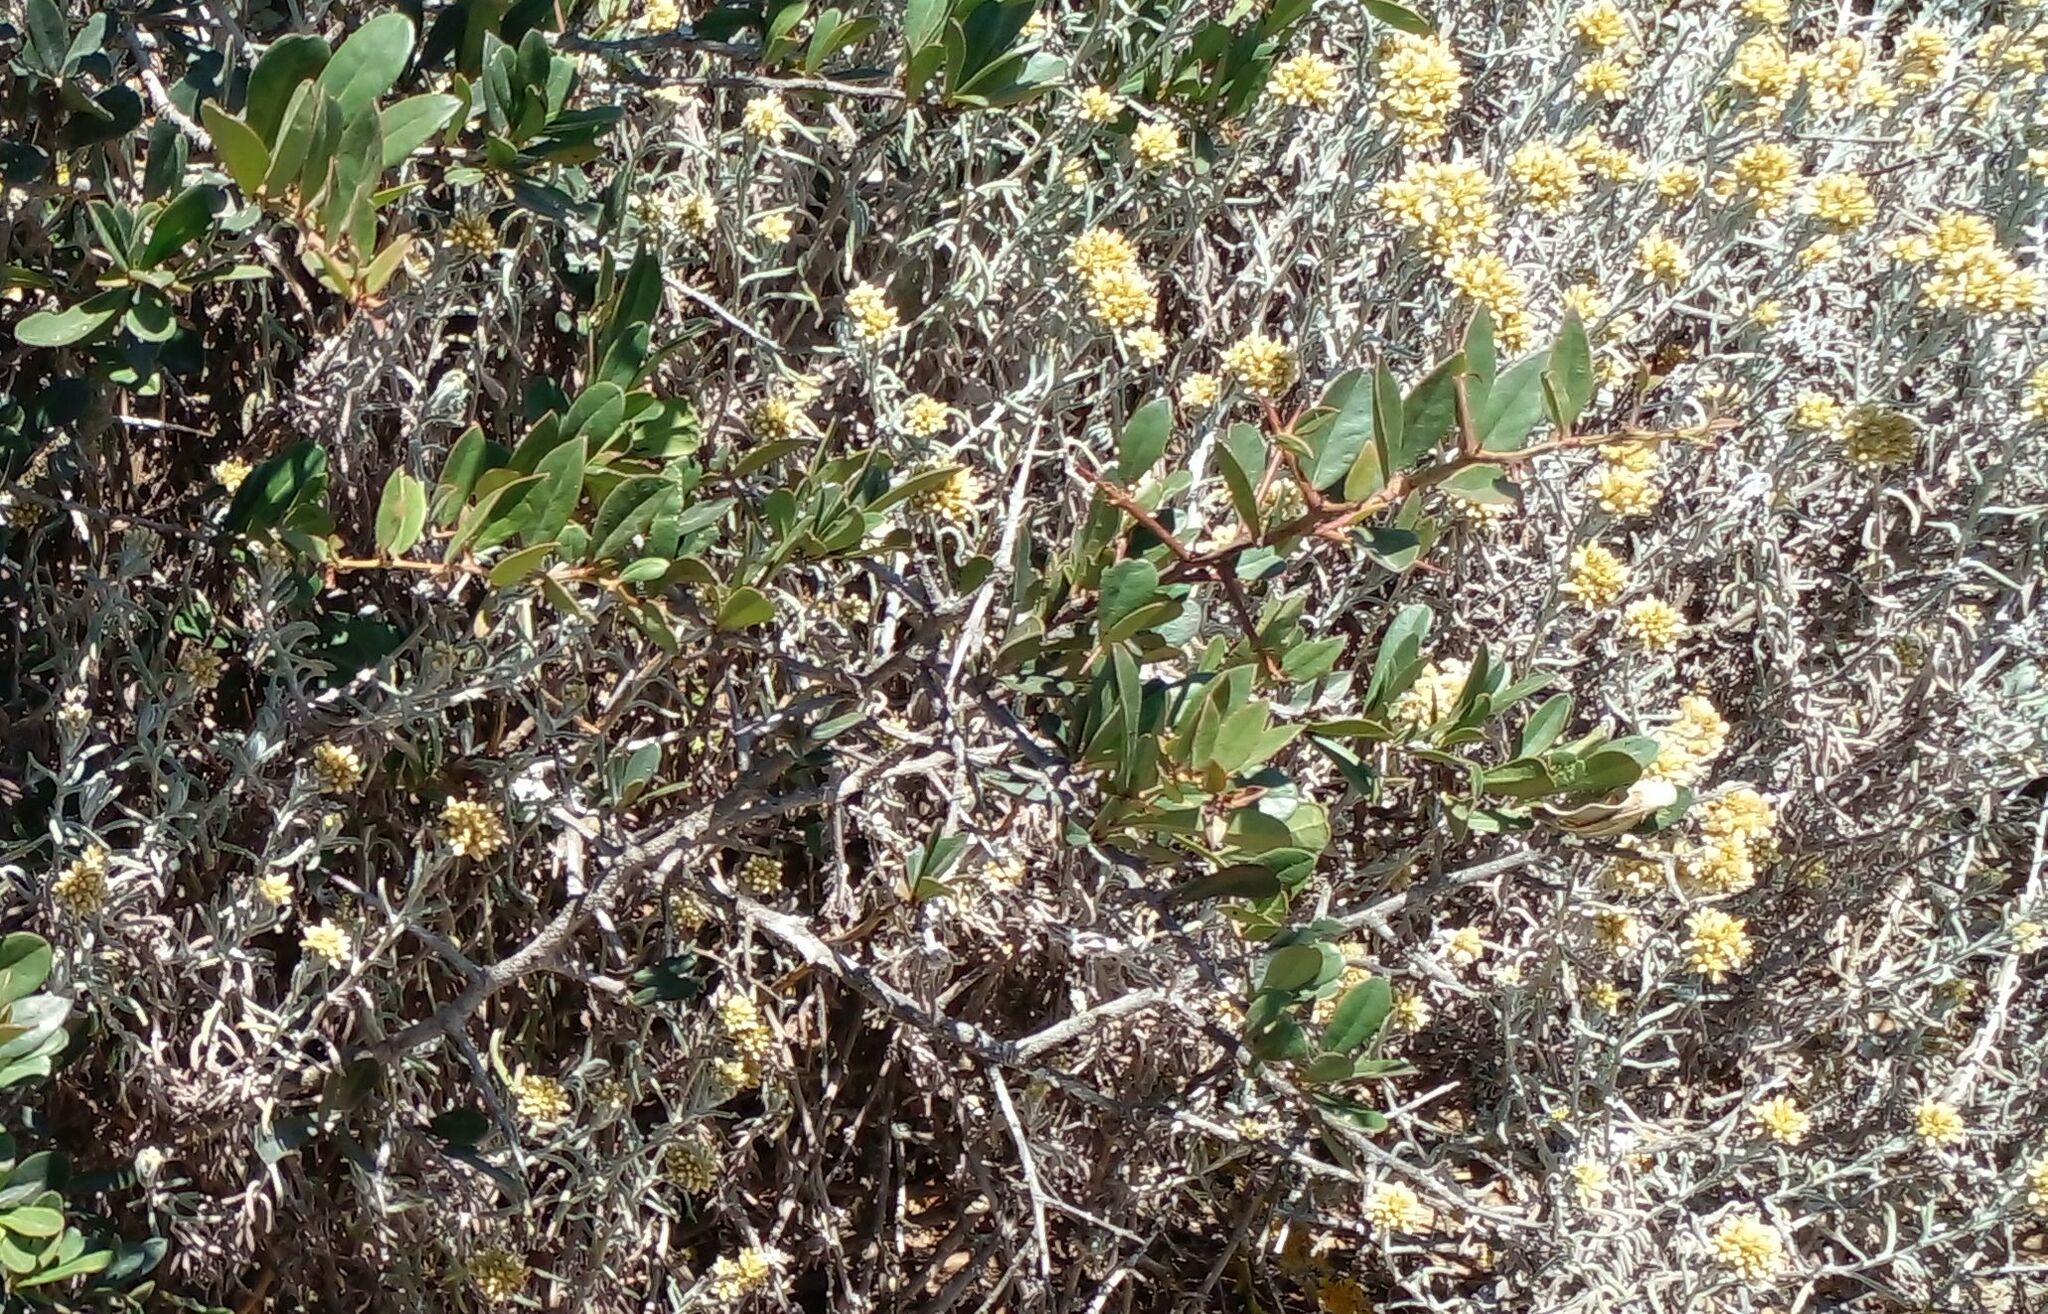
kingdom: Plantae
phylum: Tracheophyta
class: Magnoliopsida
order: Asterales
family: Asteraceae
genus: Helichrysum
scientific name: Helichrysum revolutum
